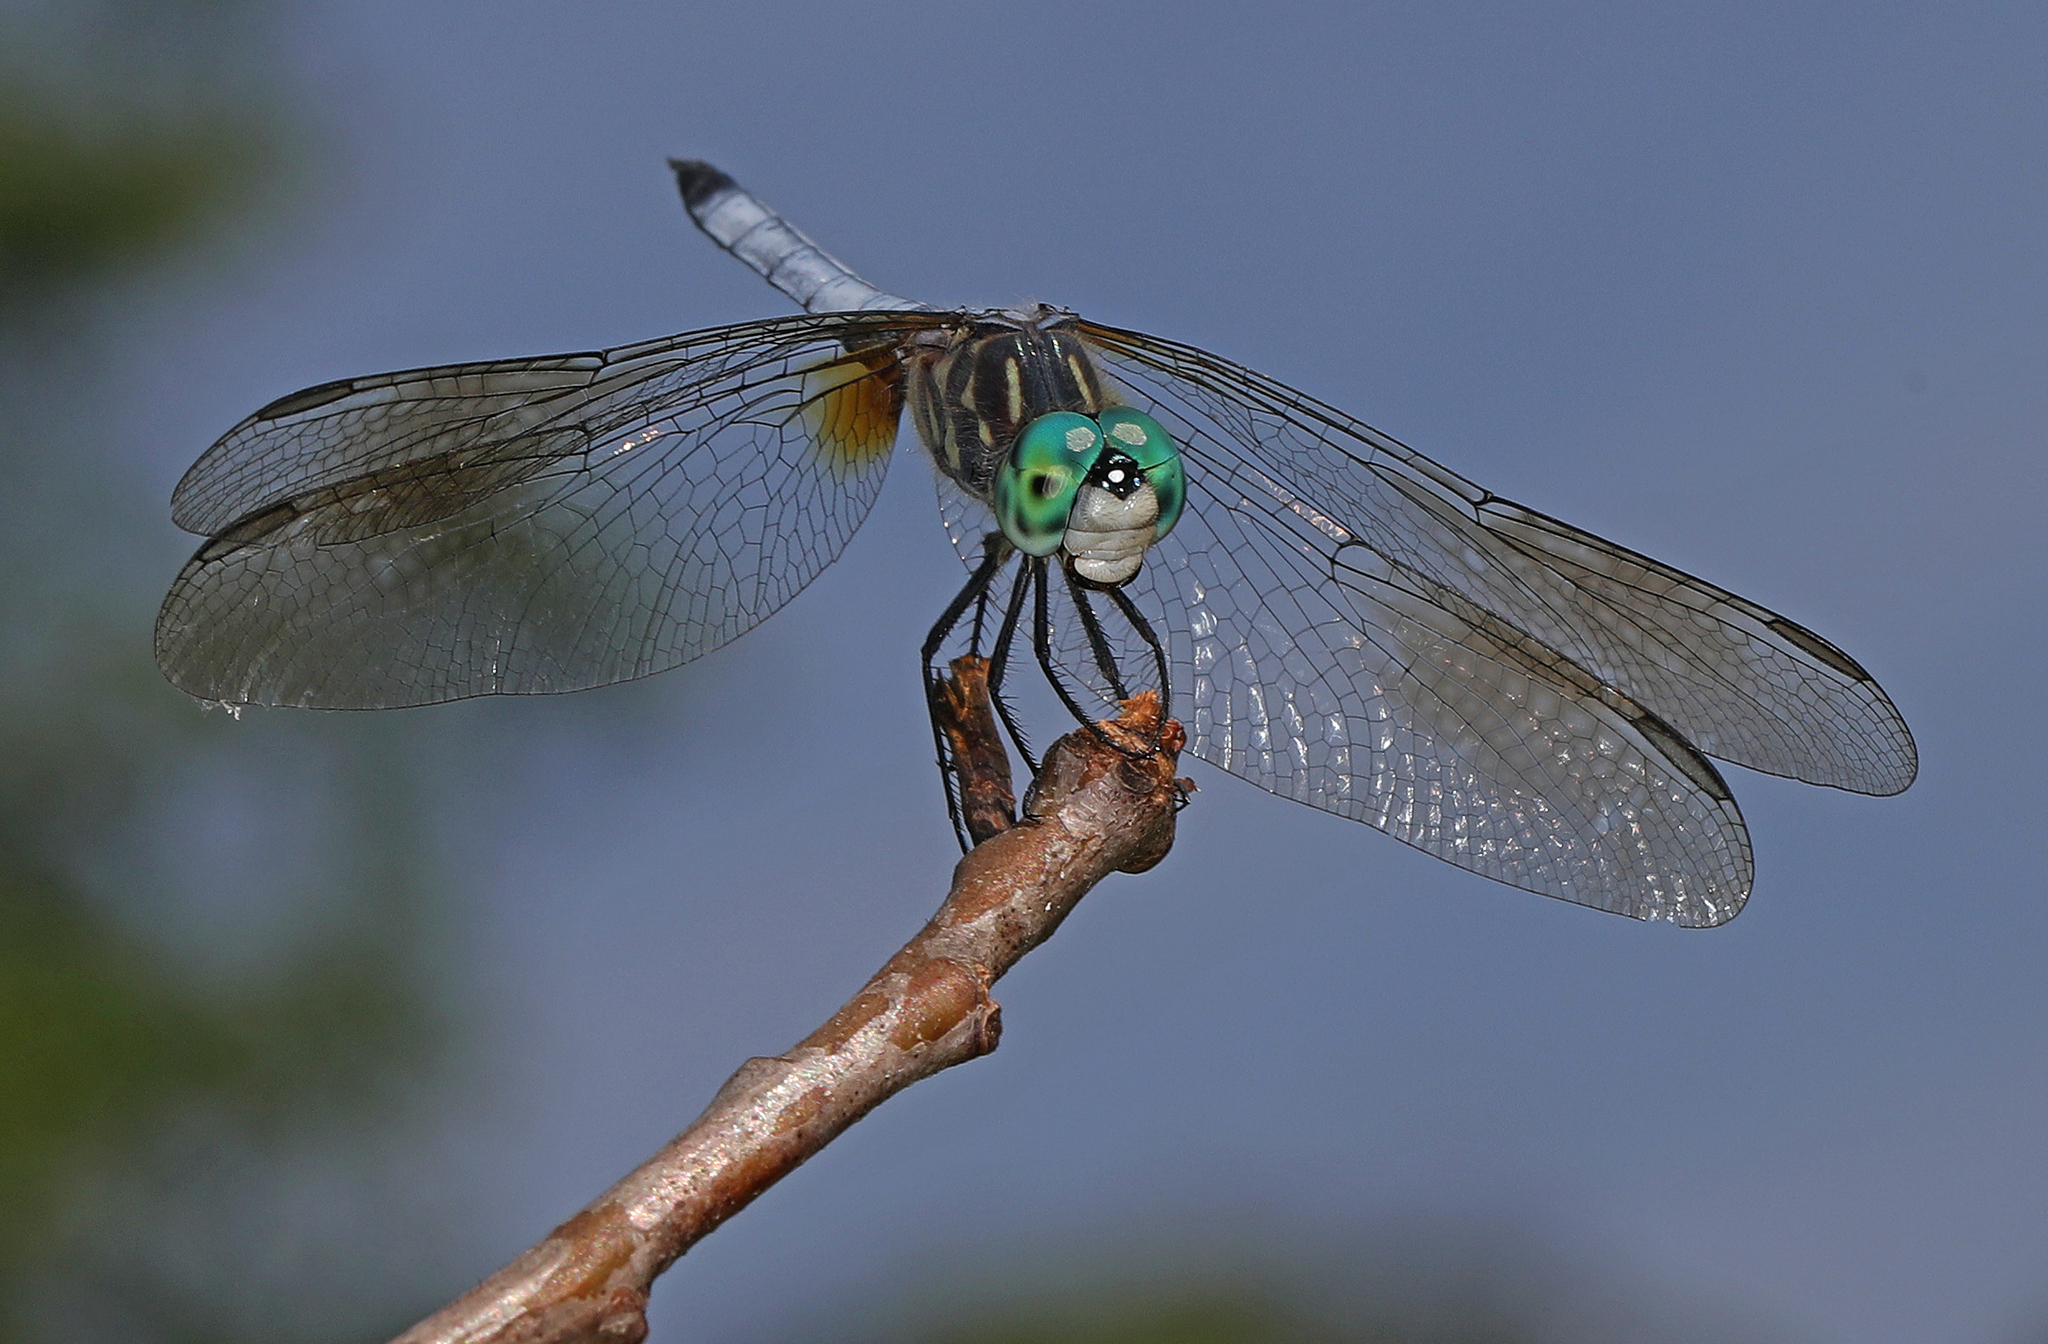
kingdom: Animalia
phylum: Arthropoda
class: Insecta
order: Odonata
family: Libellulidae
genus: Pachydiplax
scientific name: Pachydiplax longipennis
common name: Blue dasher
